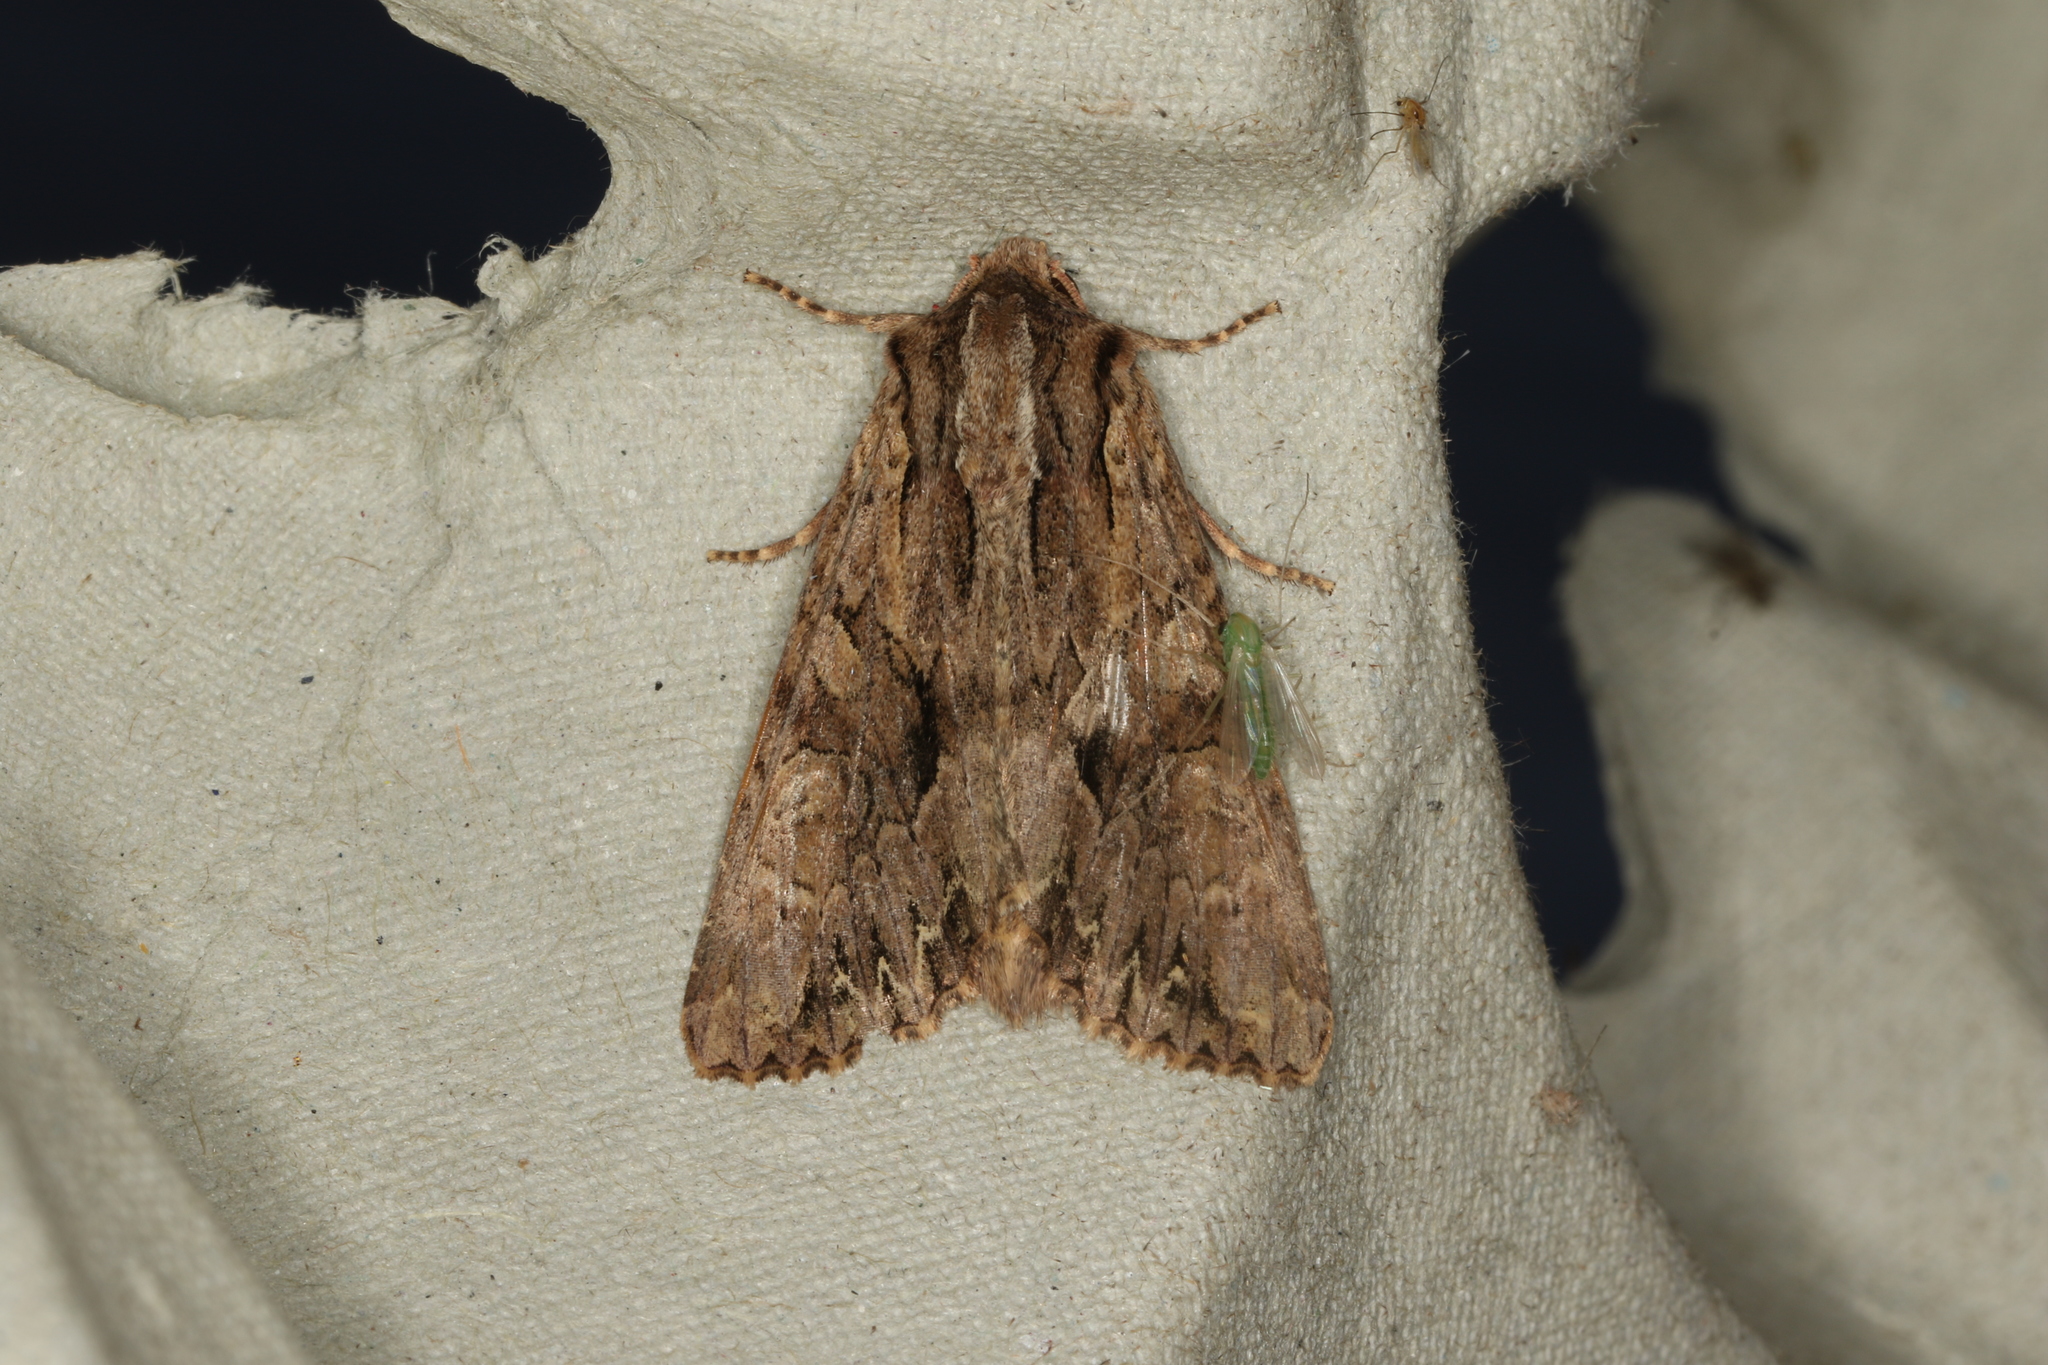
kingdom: Animalia
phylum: Arthropoda
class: Insecta
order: Lepidoptera
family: Noctuidae
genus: Apamea
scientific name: Apamea monoglypha
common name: Dark arches
